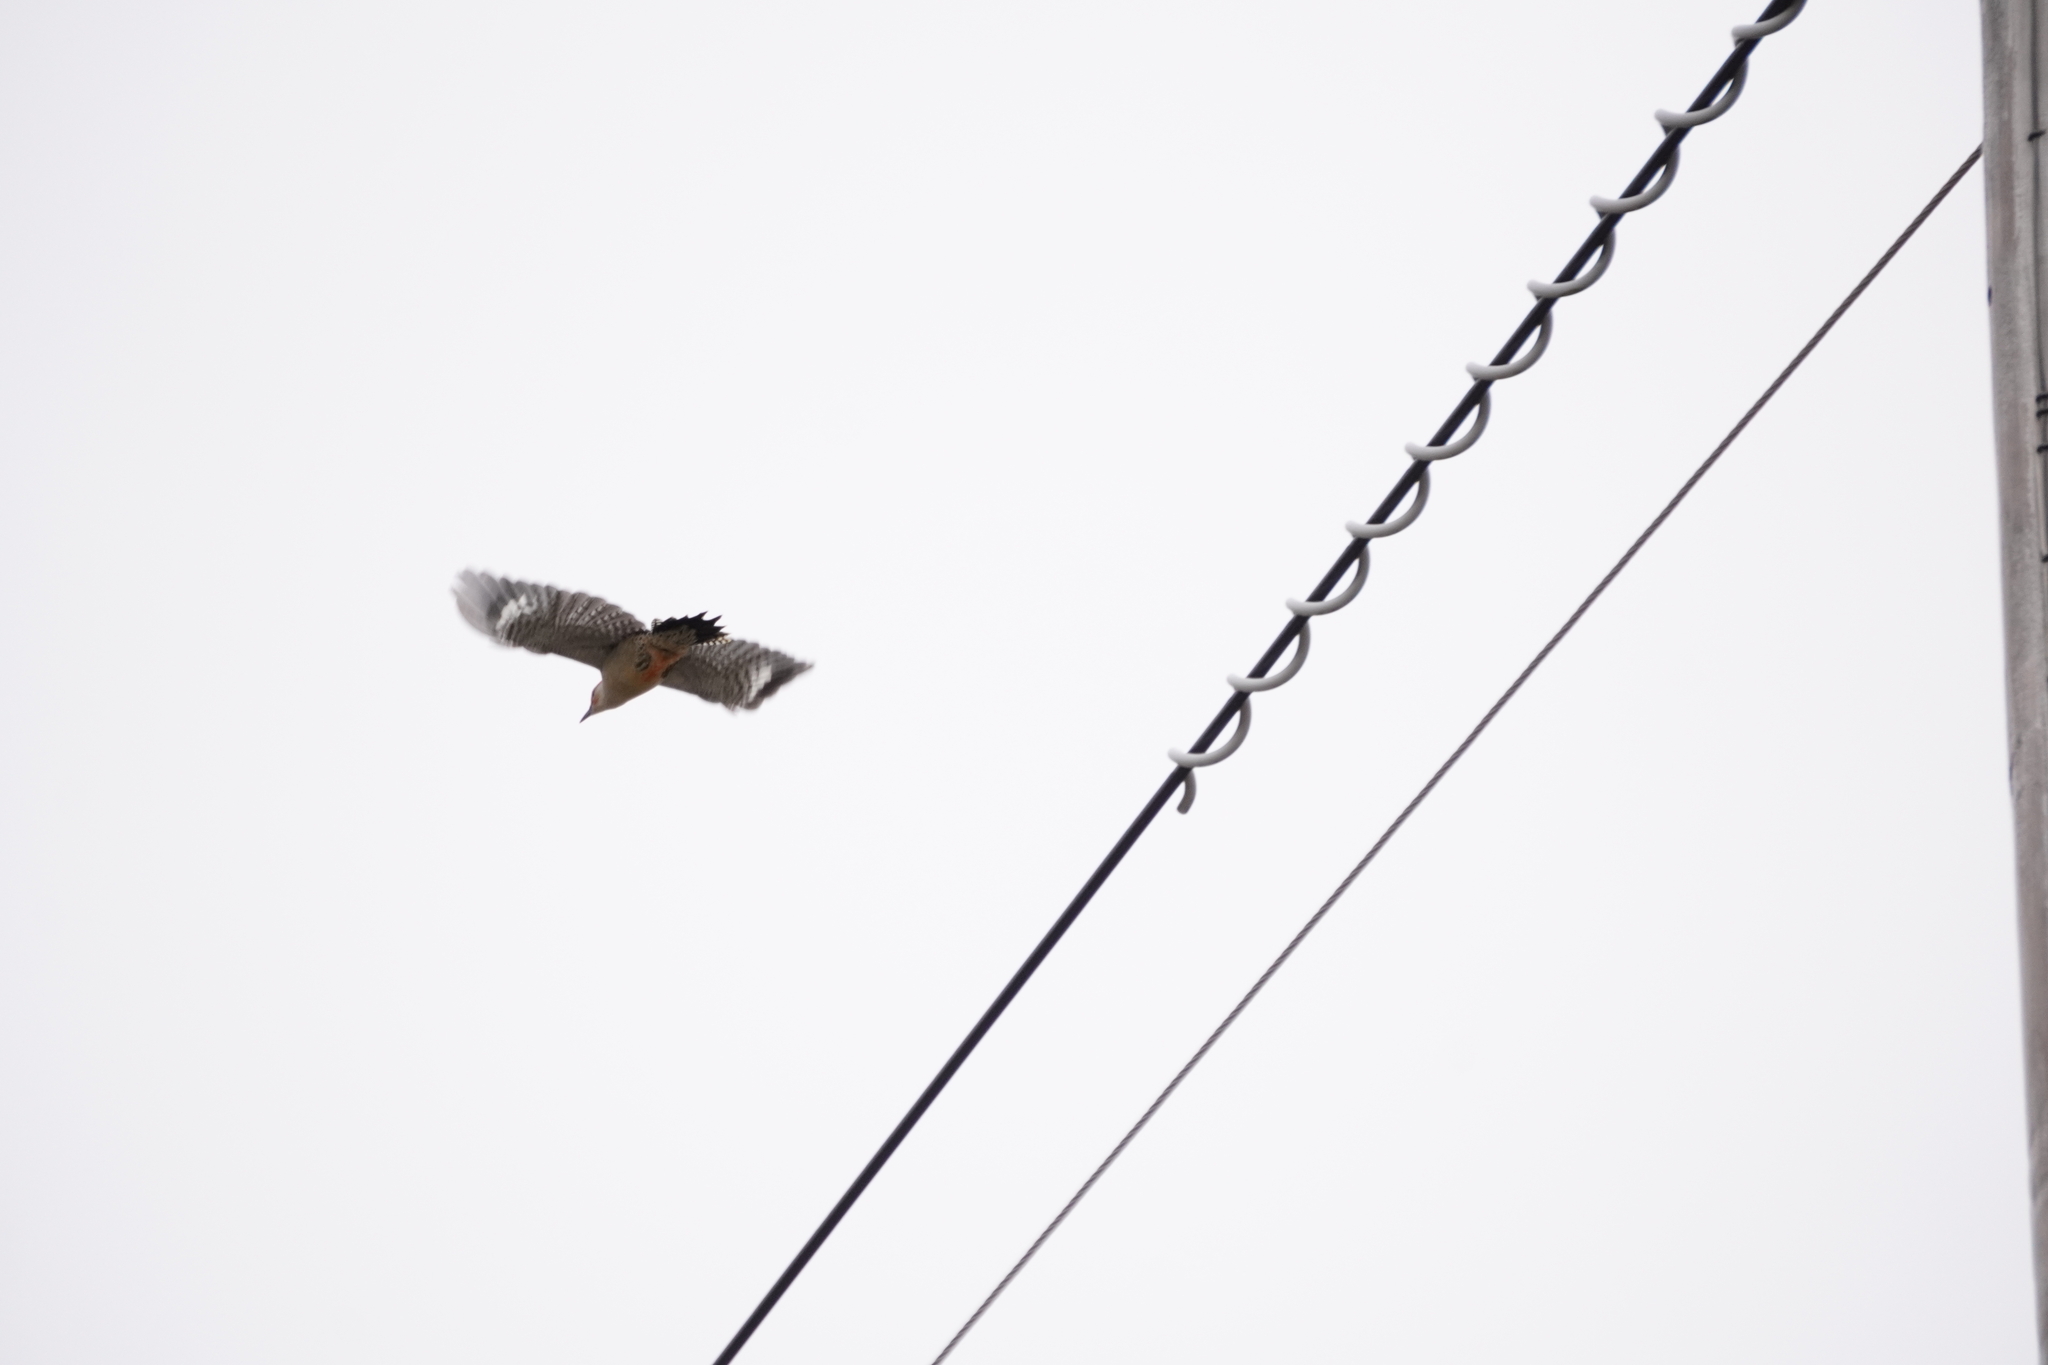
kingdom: Animalia
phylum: Chordata
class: Aves
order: Piciformes
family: Picidae
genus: Melanerpes
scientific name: Melanerpes carolinus
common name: Red-bellied woodpecker
